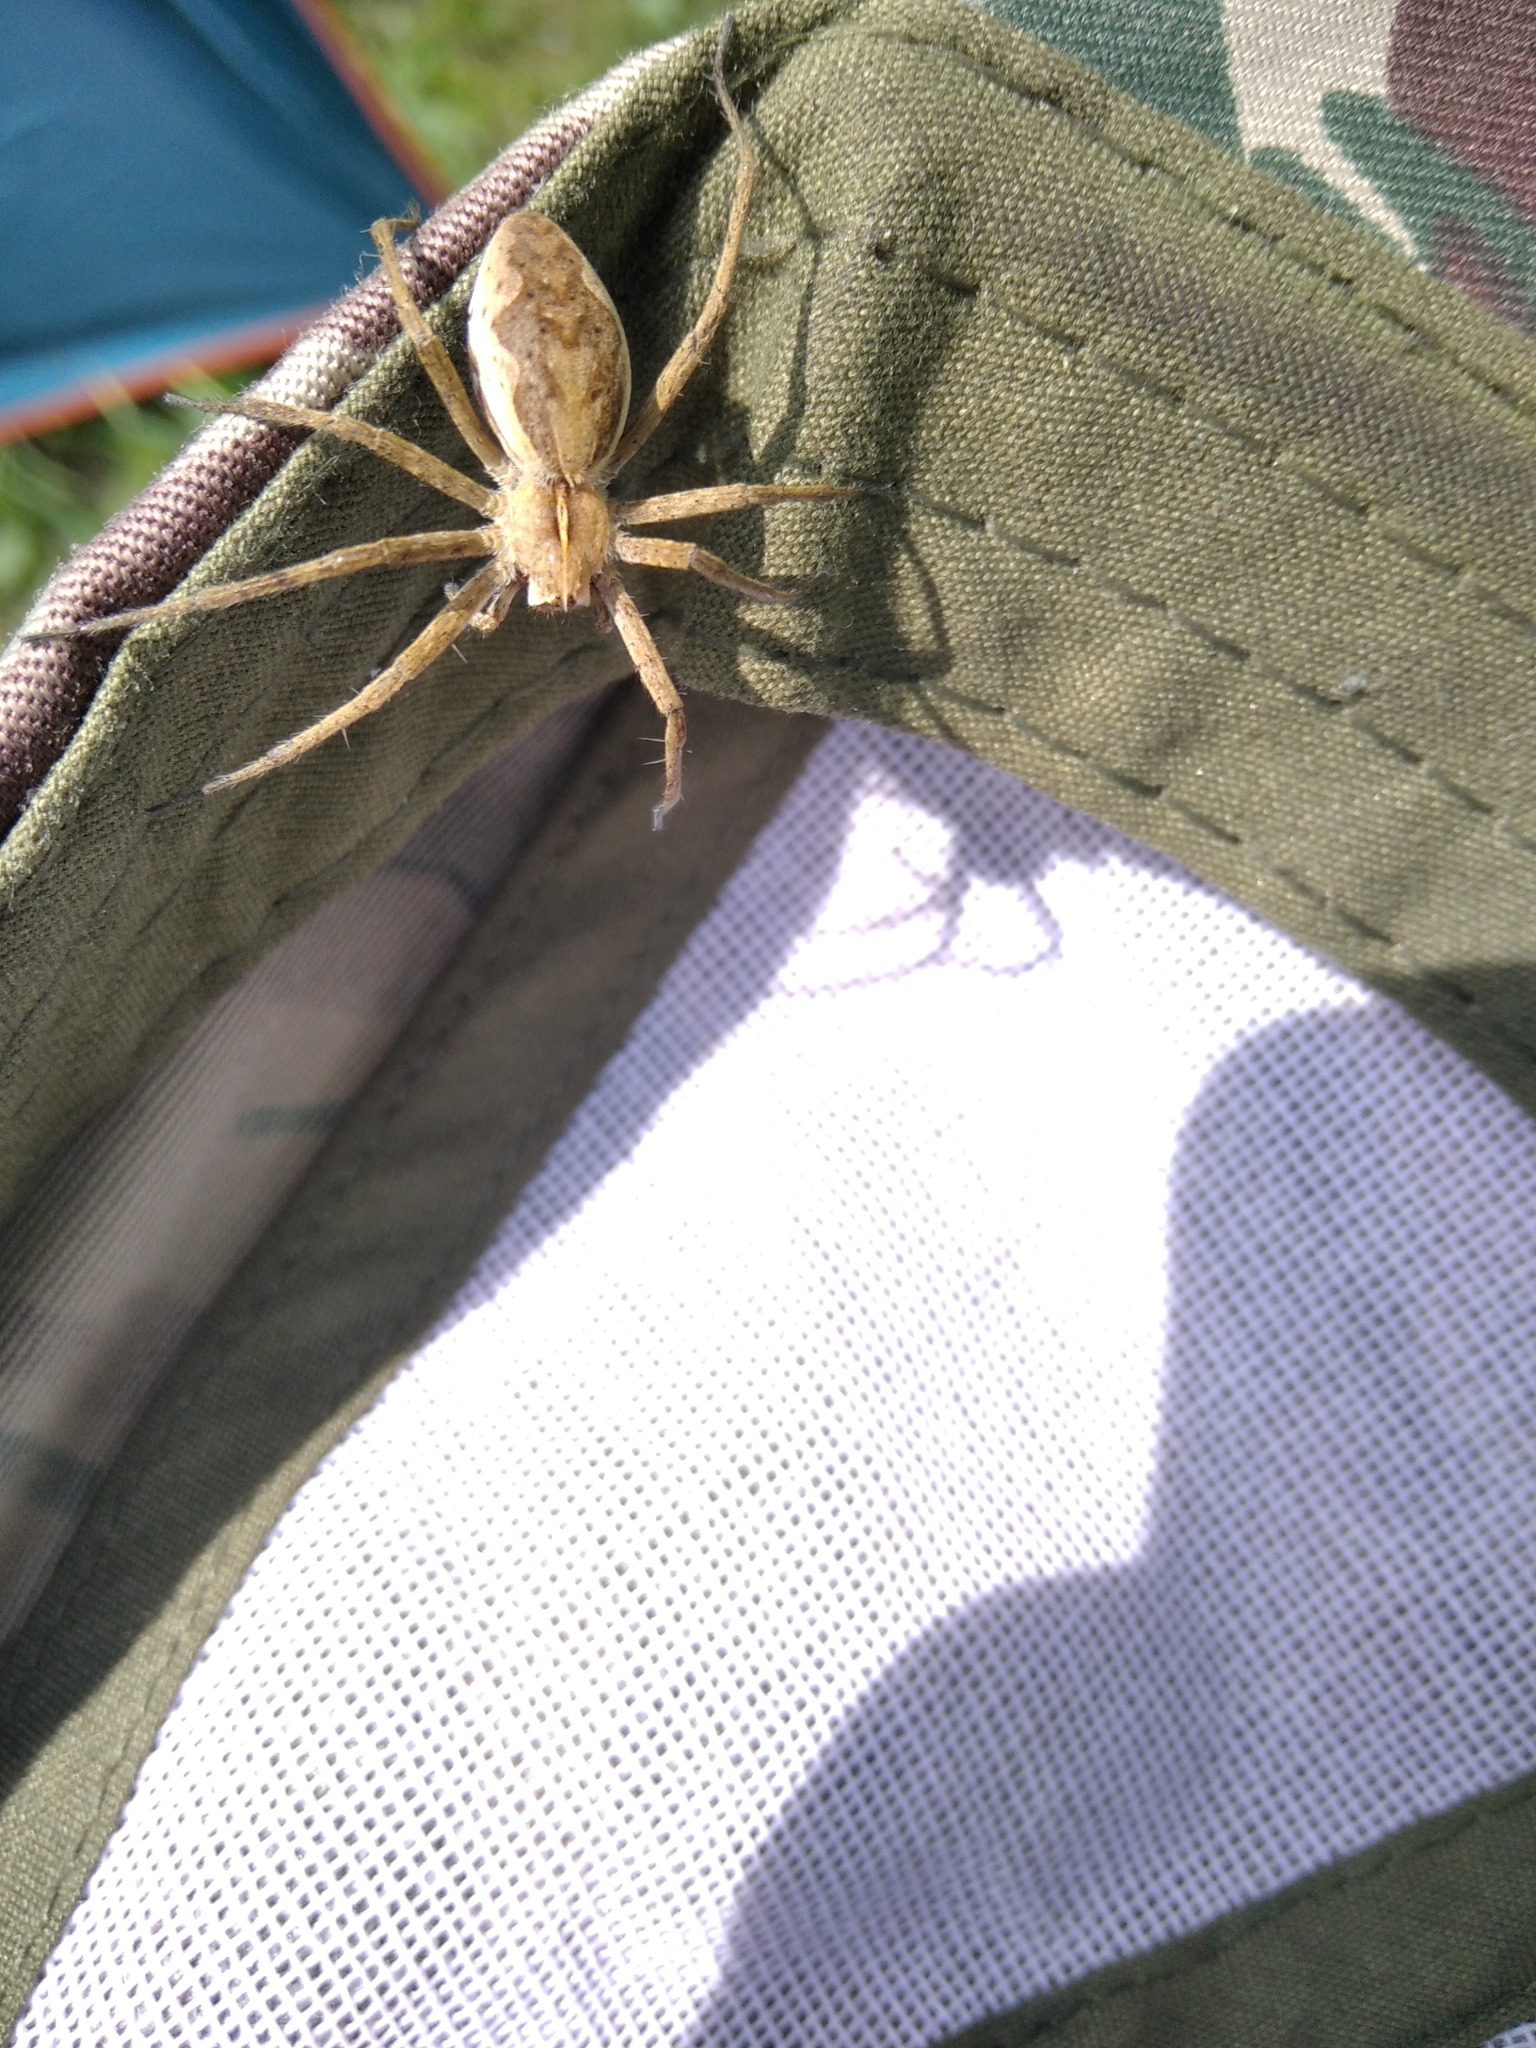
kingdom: Animalia
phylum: Arthropoda
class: Arachnida
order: Araneae
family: Pisauridae
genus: Pisaura
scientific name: Pisaura mirabilis
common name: Tent spider
